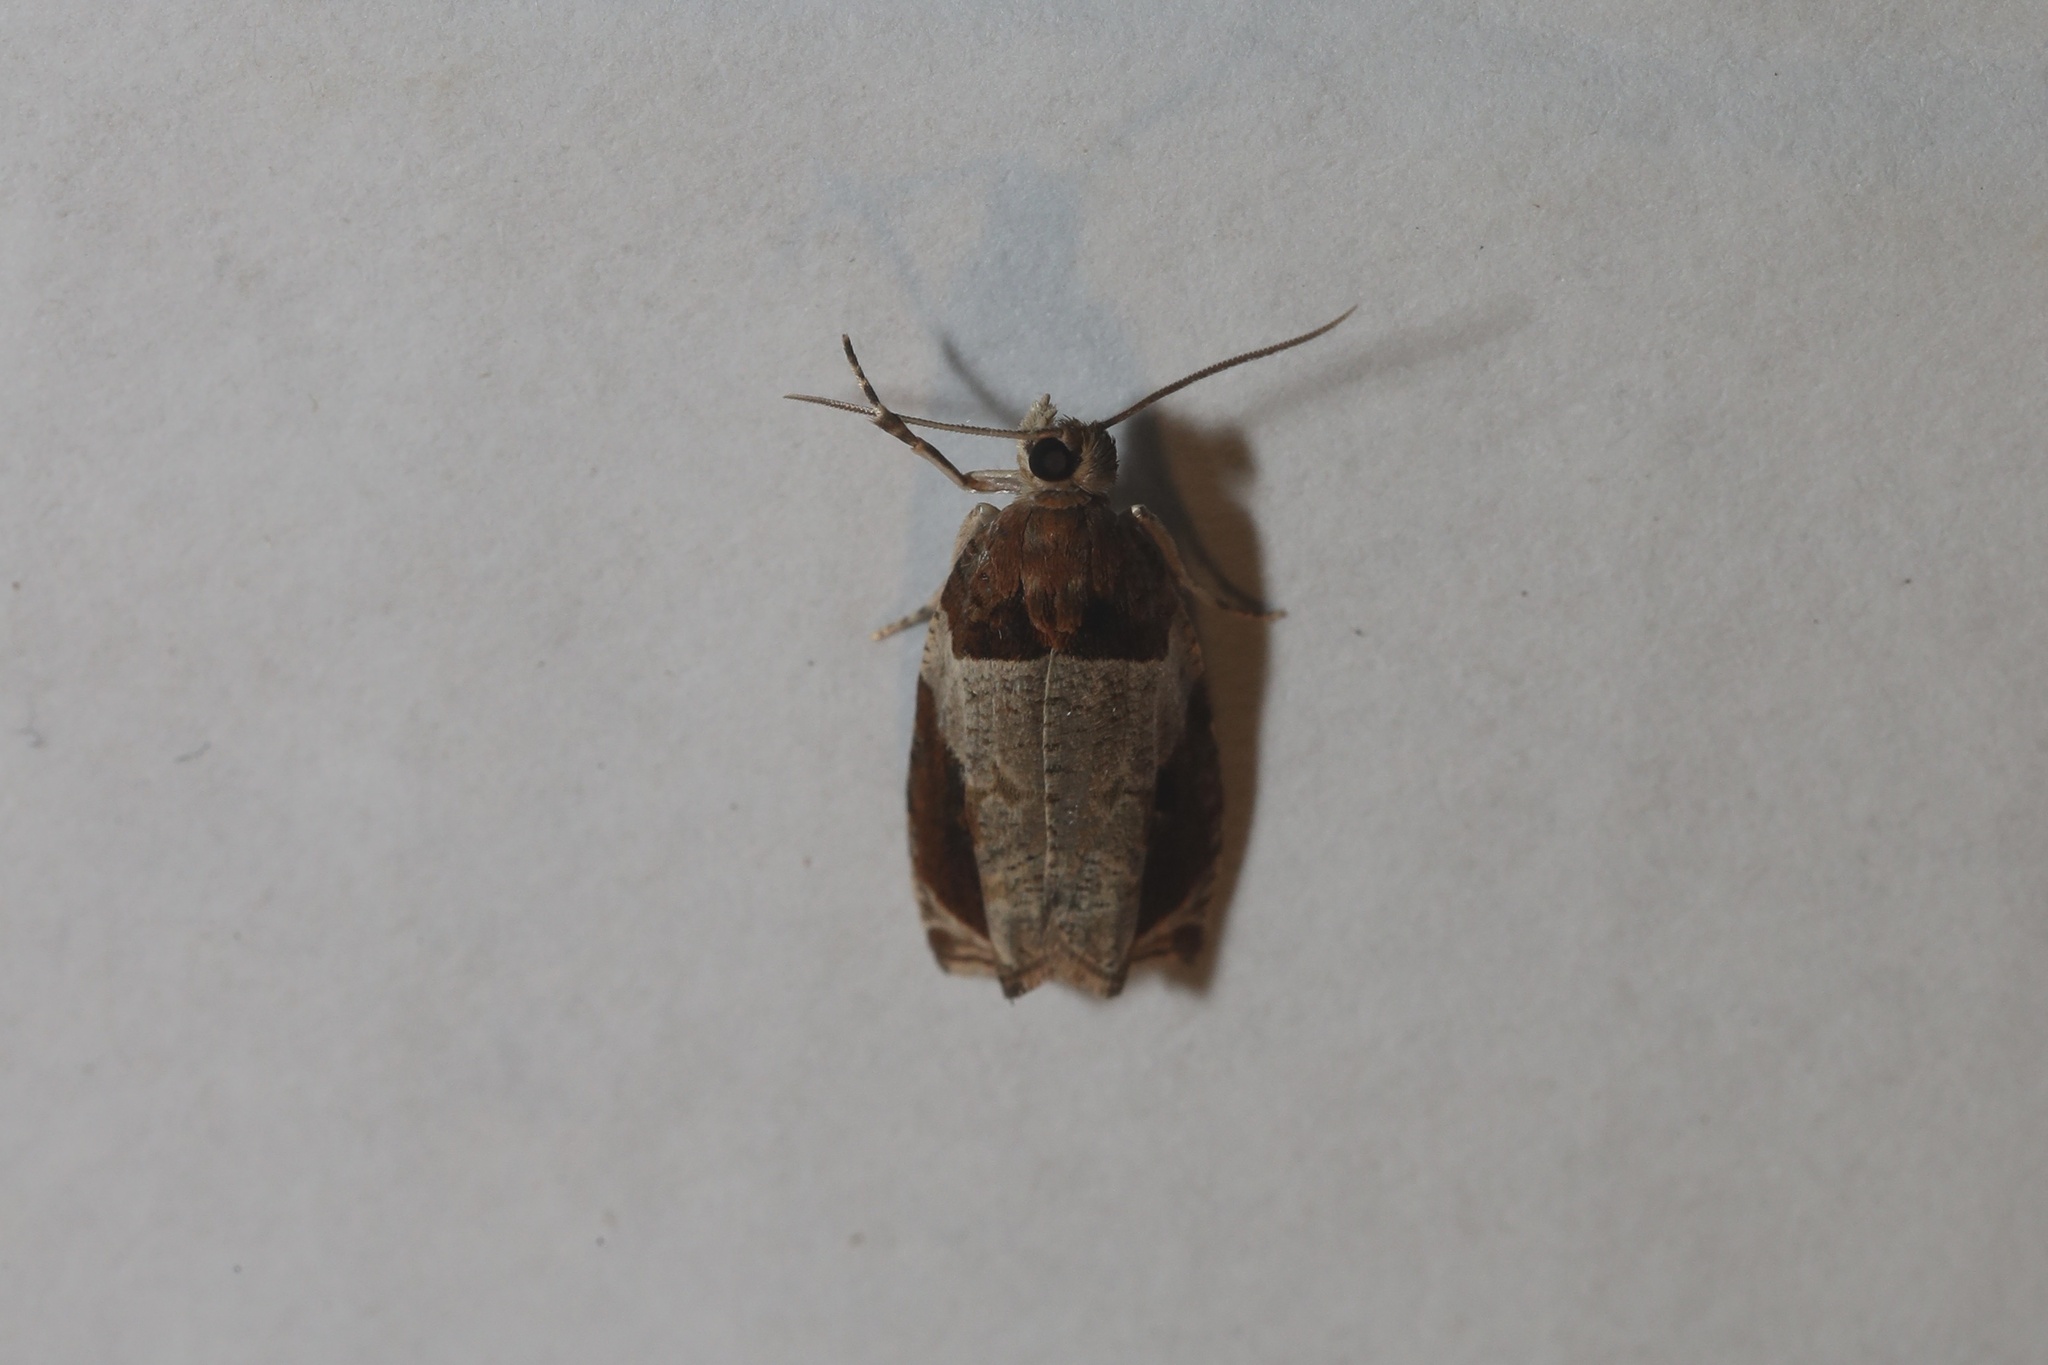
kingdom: Animalia
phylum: Arthropoda
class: Insecta
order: Lepidoptera
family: Tortricidae
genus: Olethreutes
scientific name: Olethreutes ferriferana
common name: Hydrangea leaftier moth
